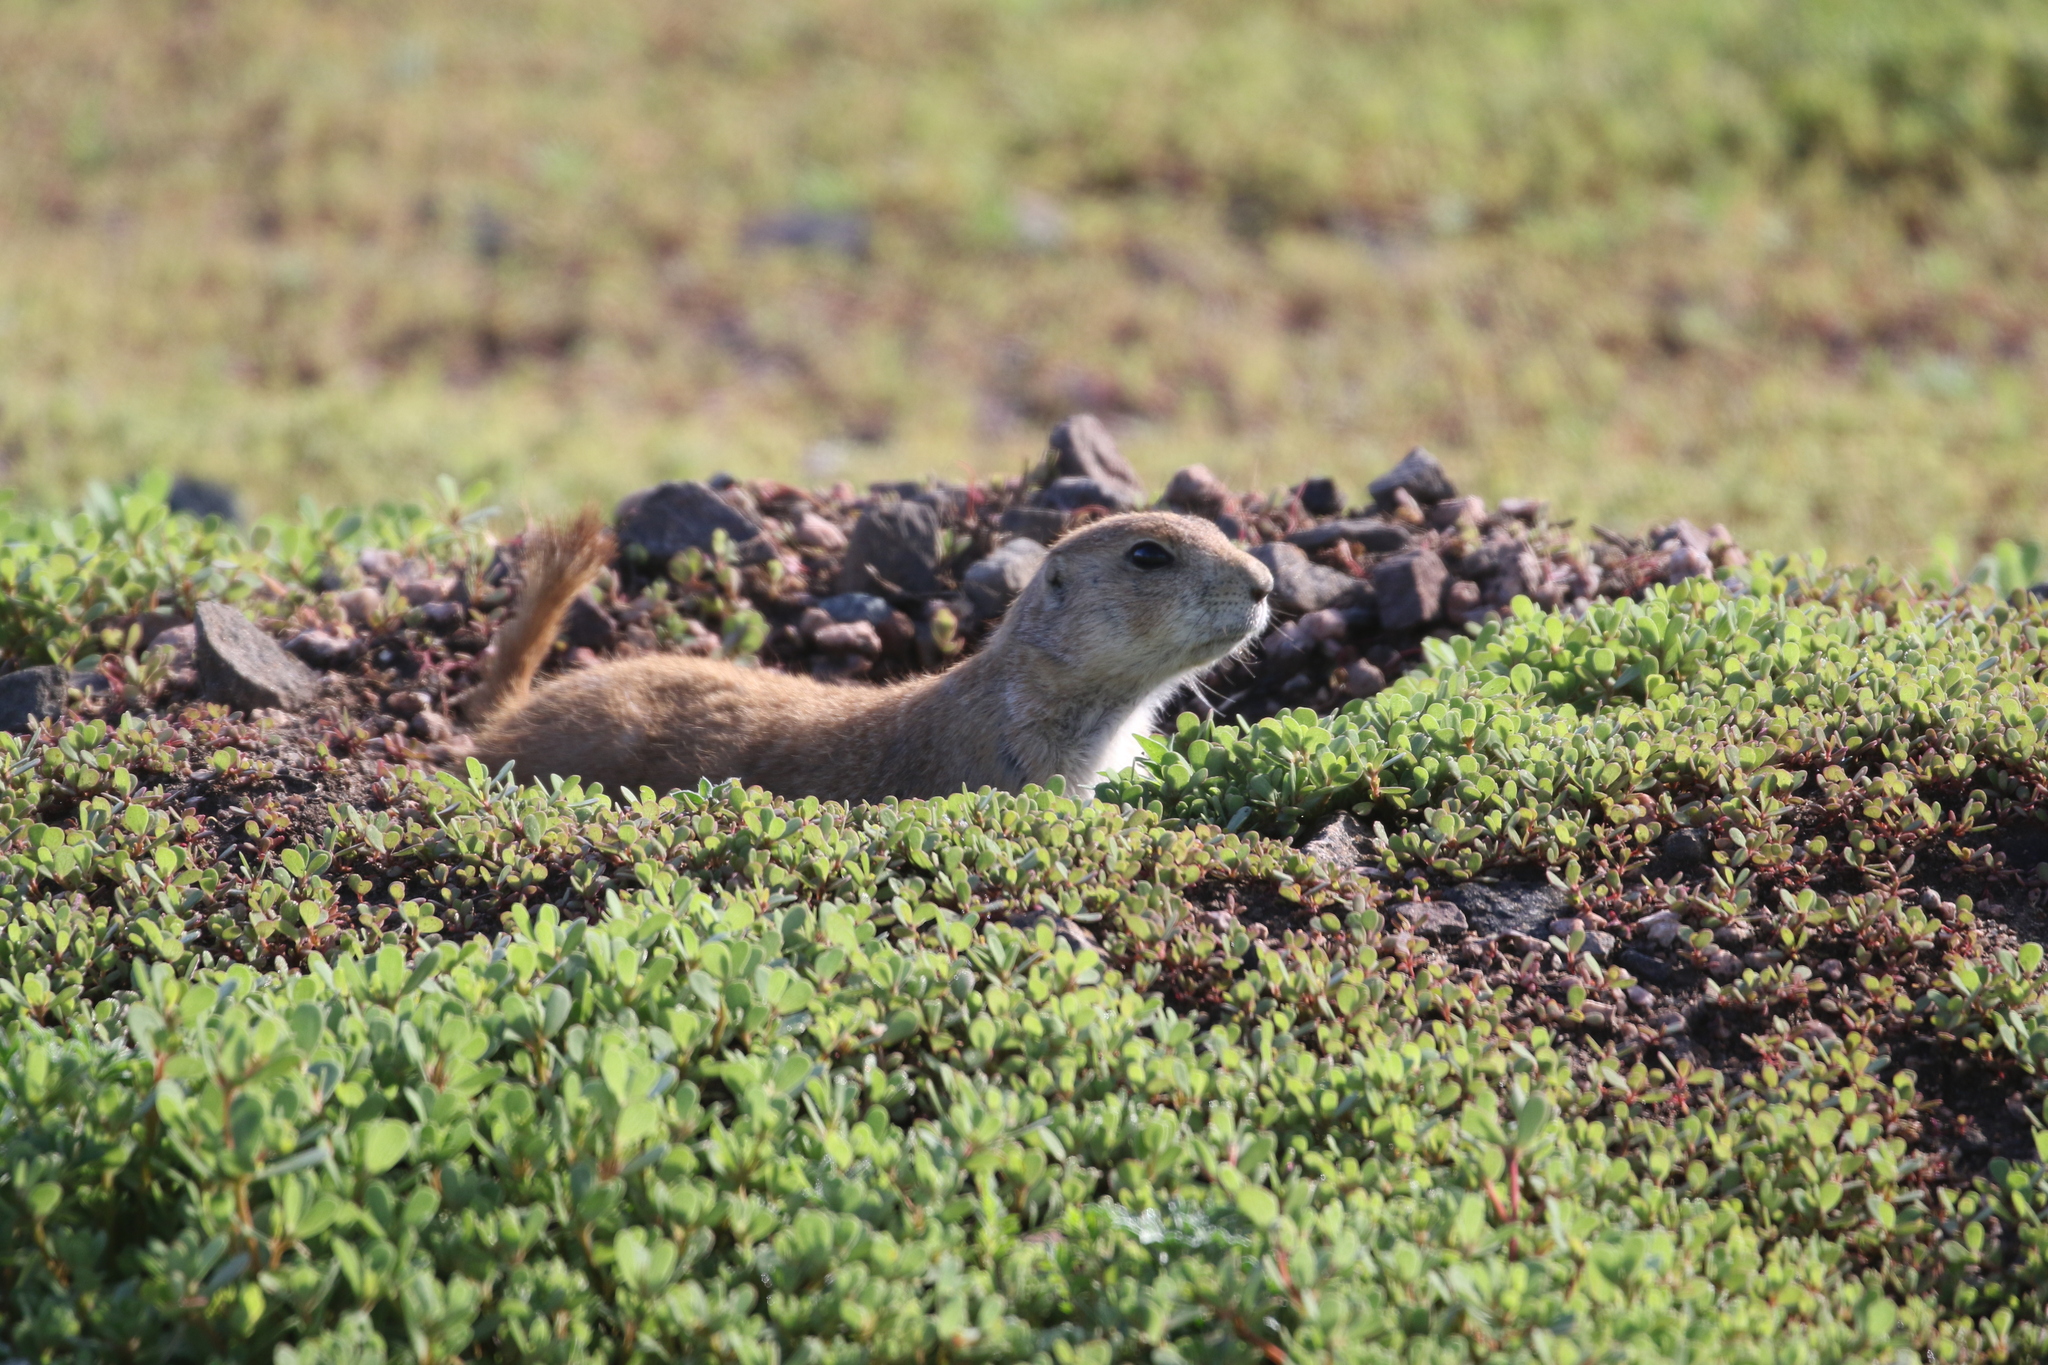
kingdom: Animalia
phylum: Chordata
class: Mammalia
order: Rodentia
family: Sciuridae
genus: Cynomys
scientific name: Cynomys ludovicianus
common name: Black-tailed prairie dog
